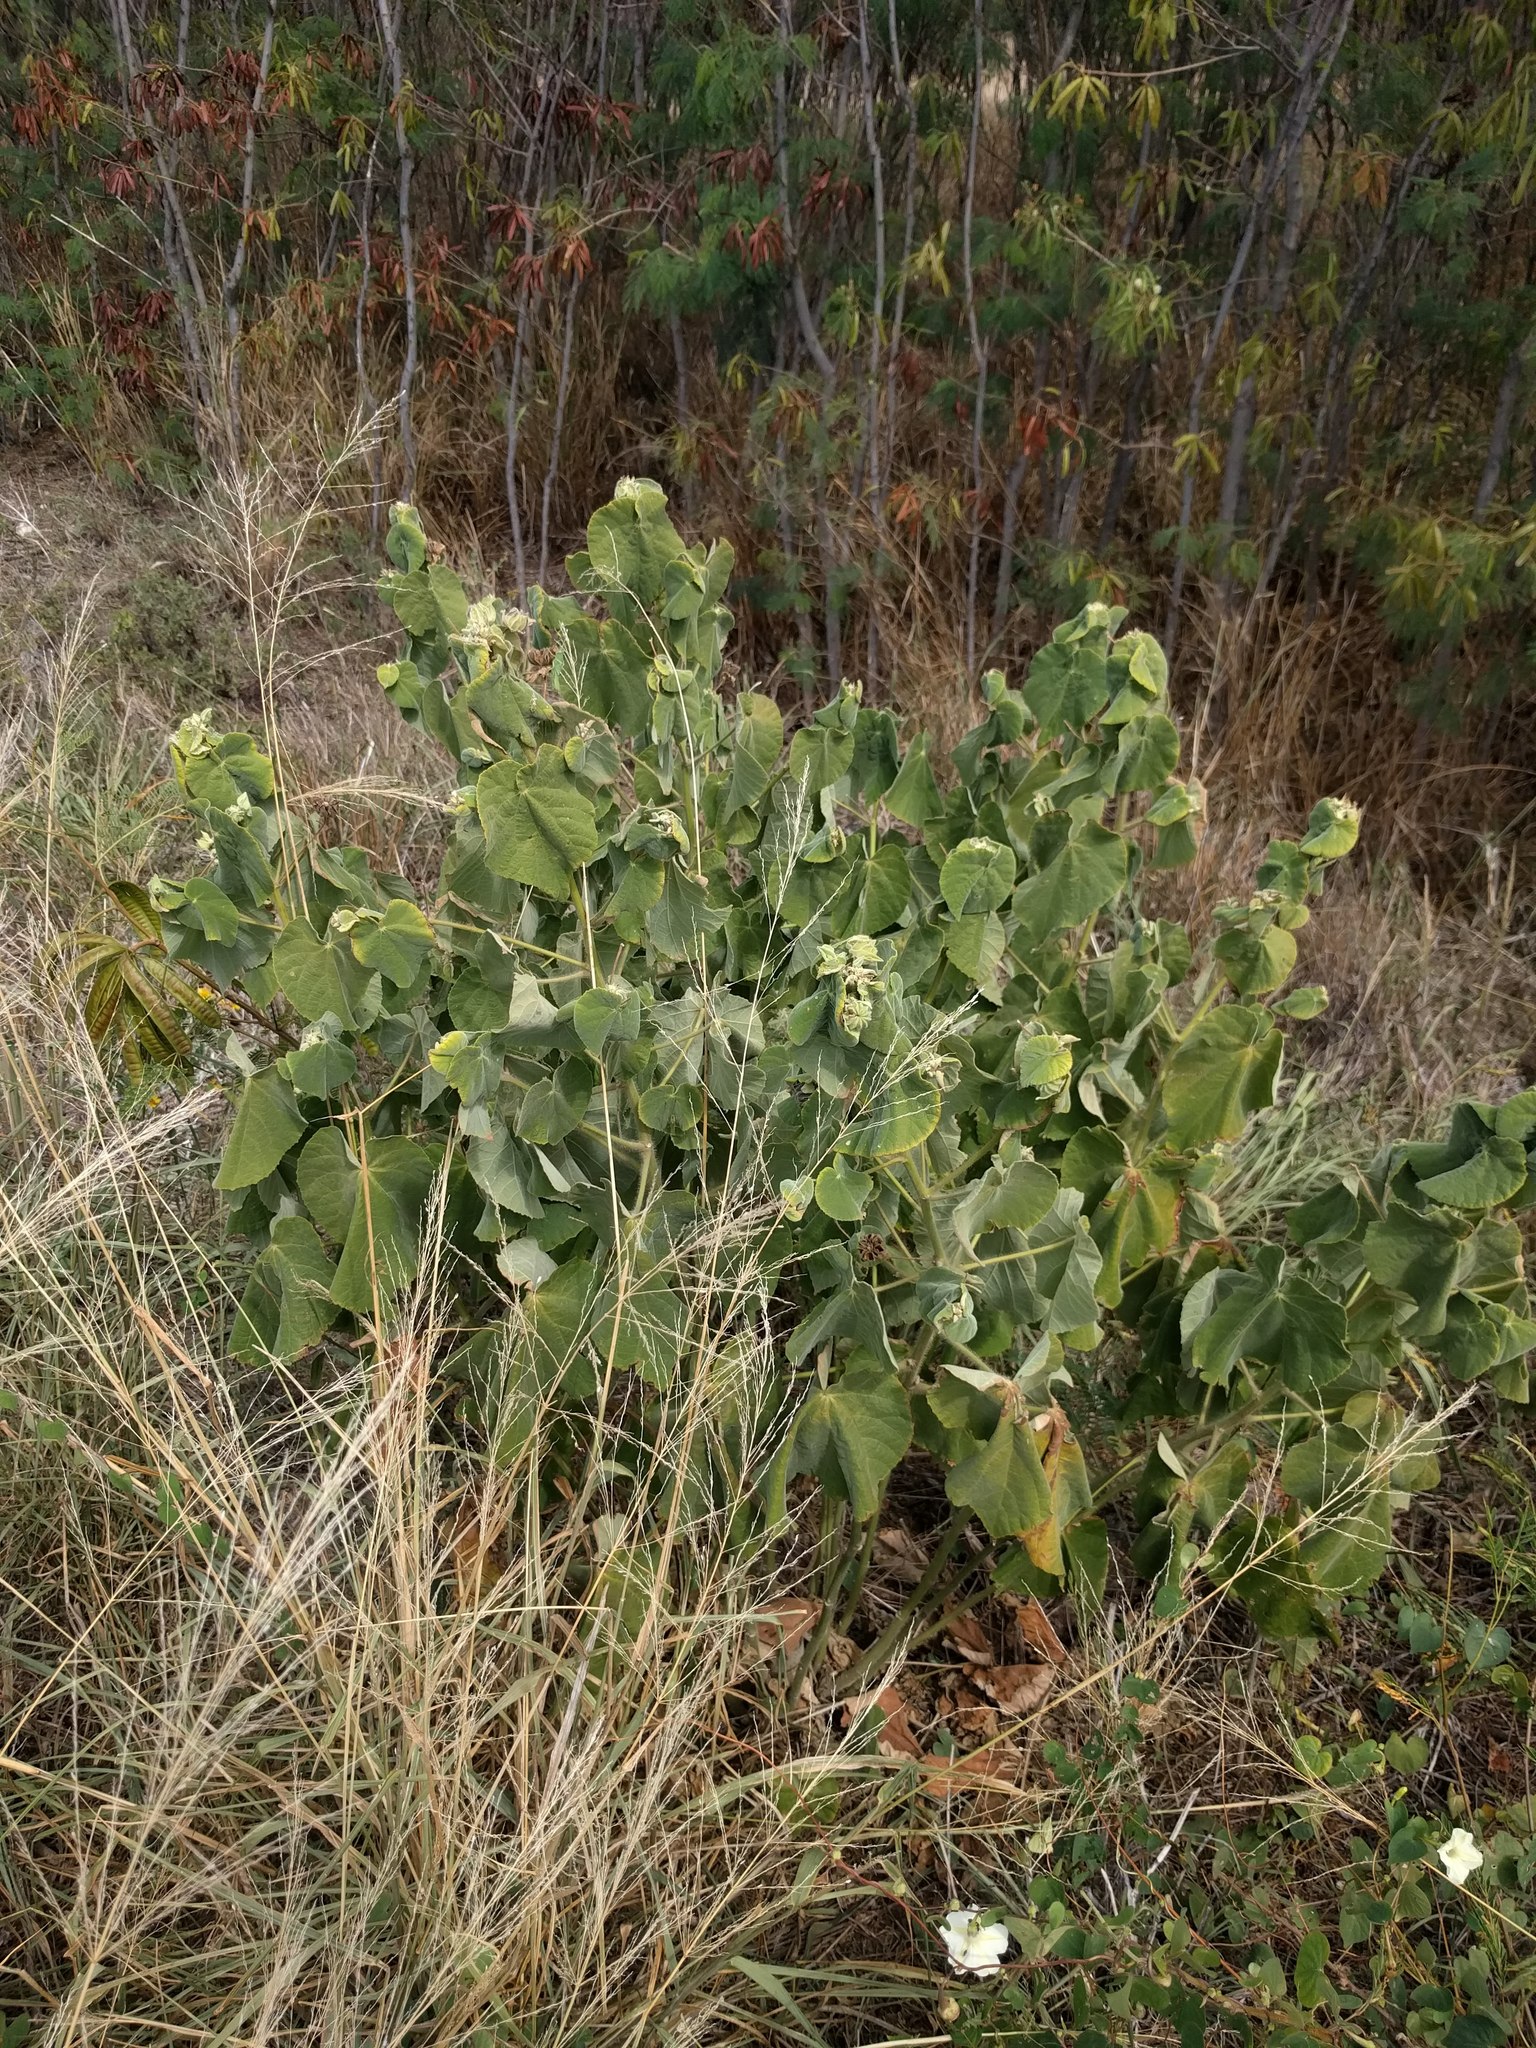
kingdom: Plantae
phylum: Tracheophyta
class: Magnoliopsida
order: Malvales
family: Malvaceae
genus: Abutilon
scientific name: Abutilon grandifolium
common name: Hairy abutilon
